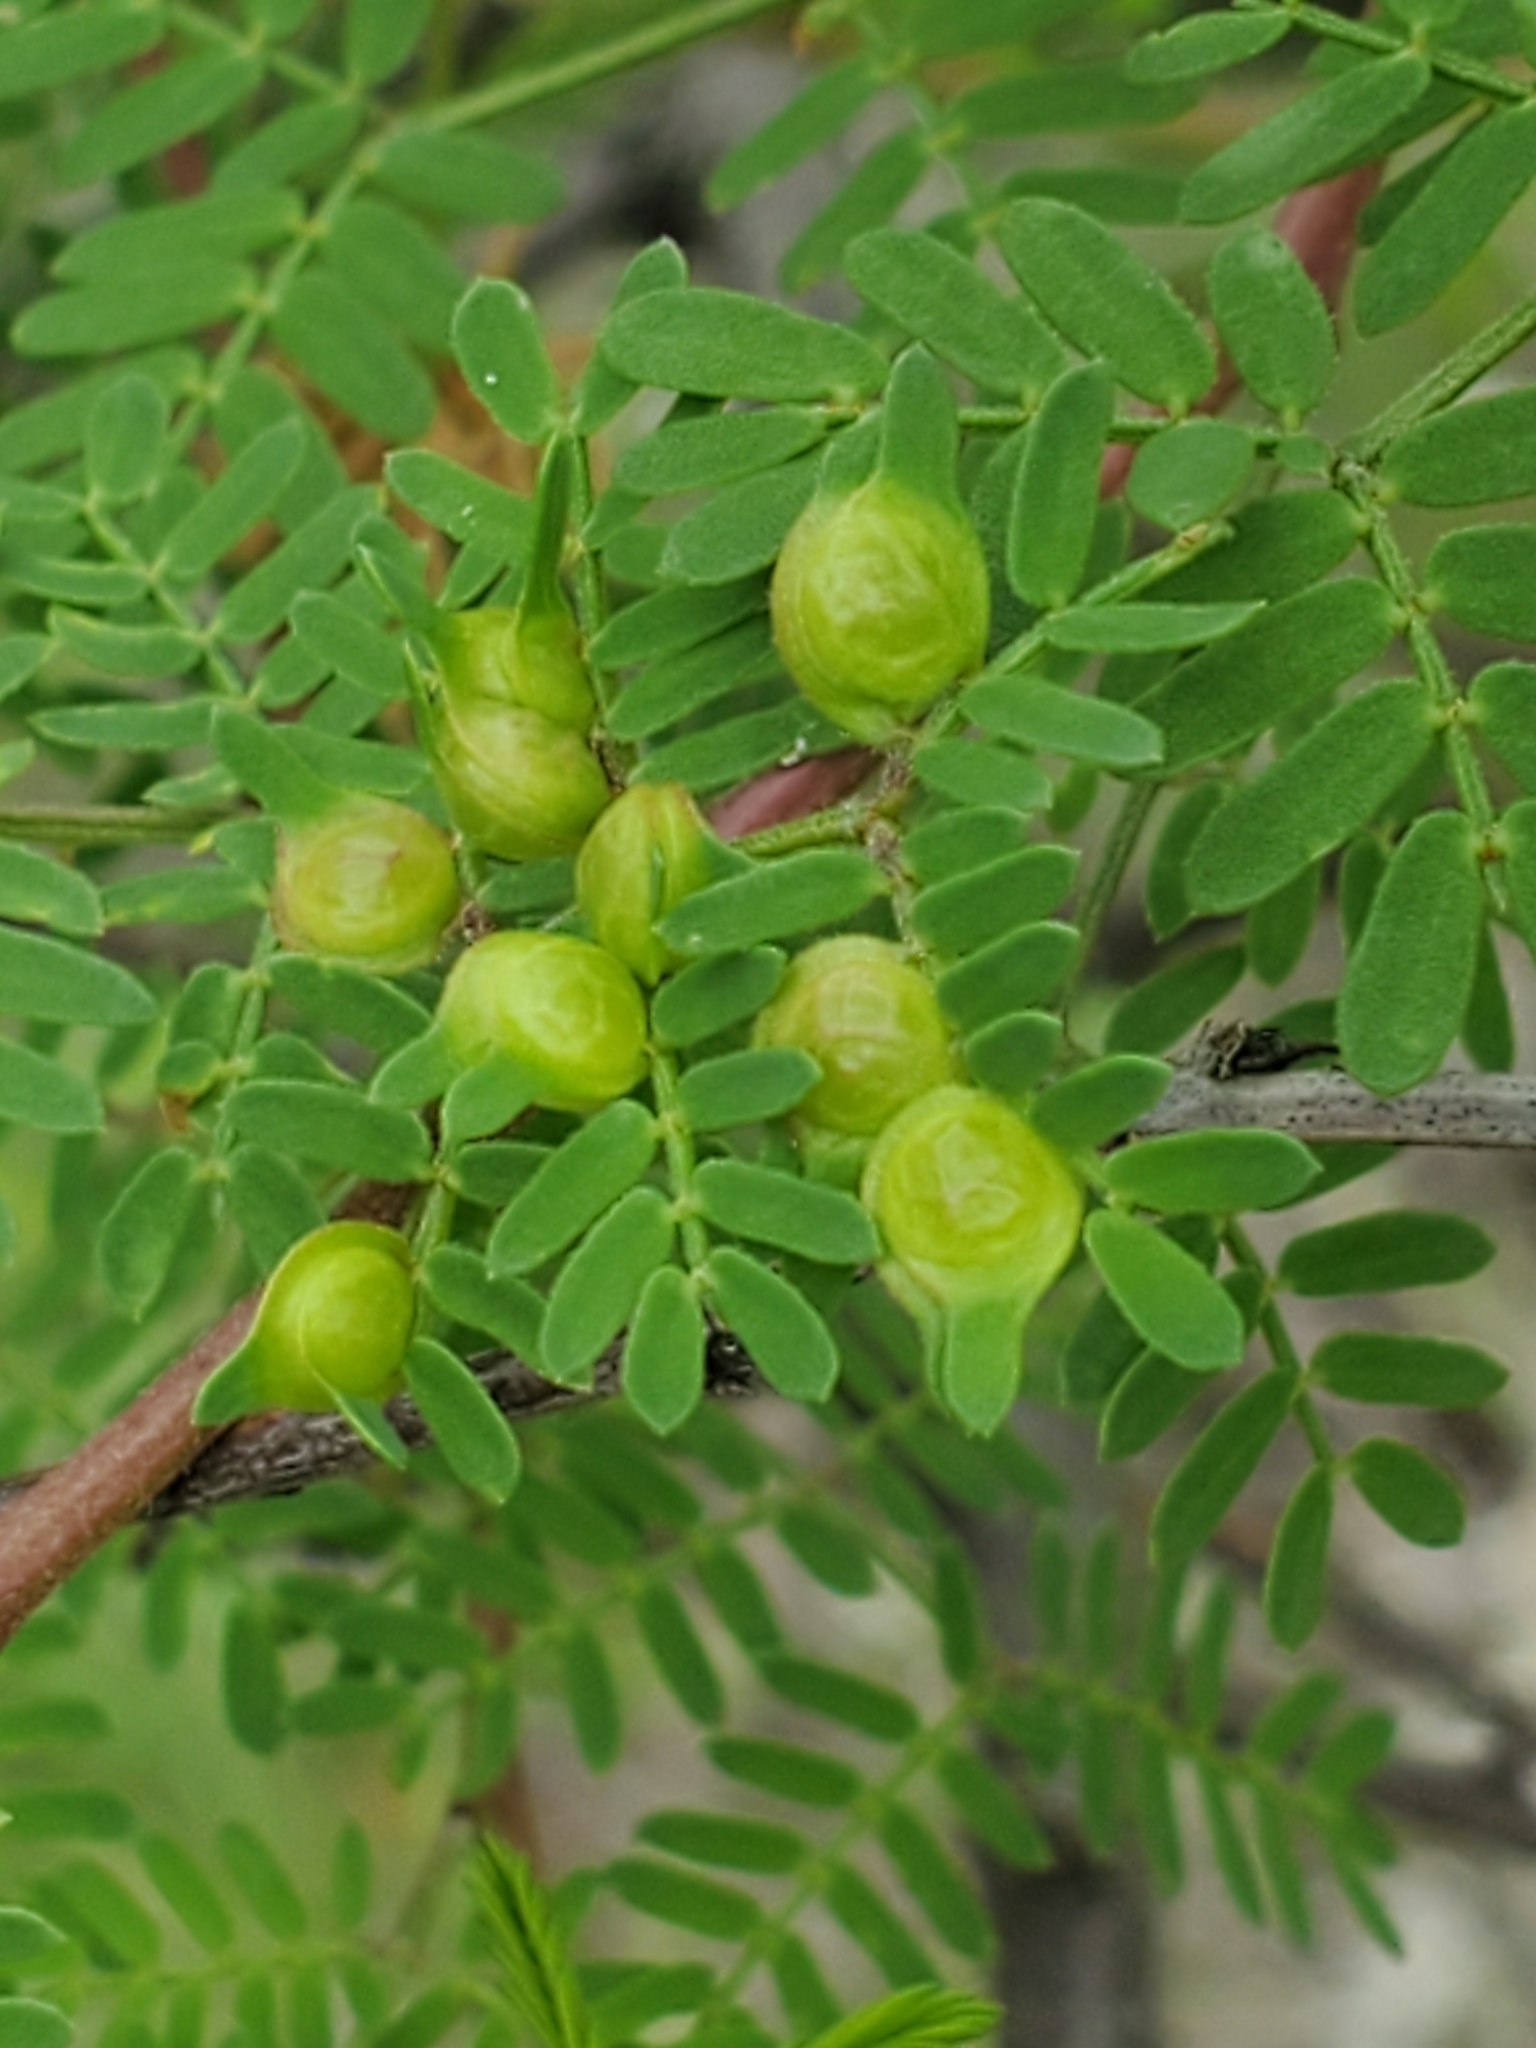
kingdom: Plantae
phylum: Tracheophyta
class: Magnoliopsida
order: Fabales
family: Fabaceae
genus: Mimosa
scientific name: Mimosa texana
